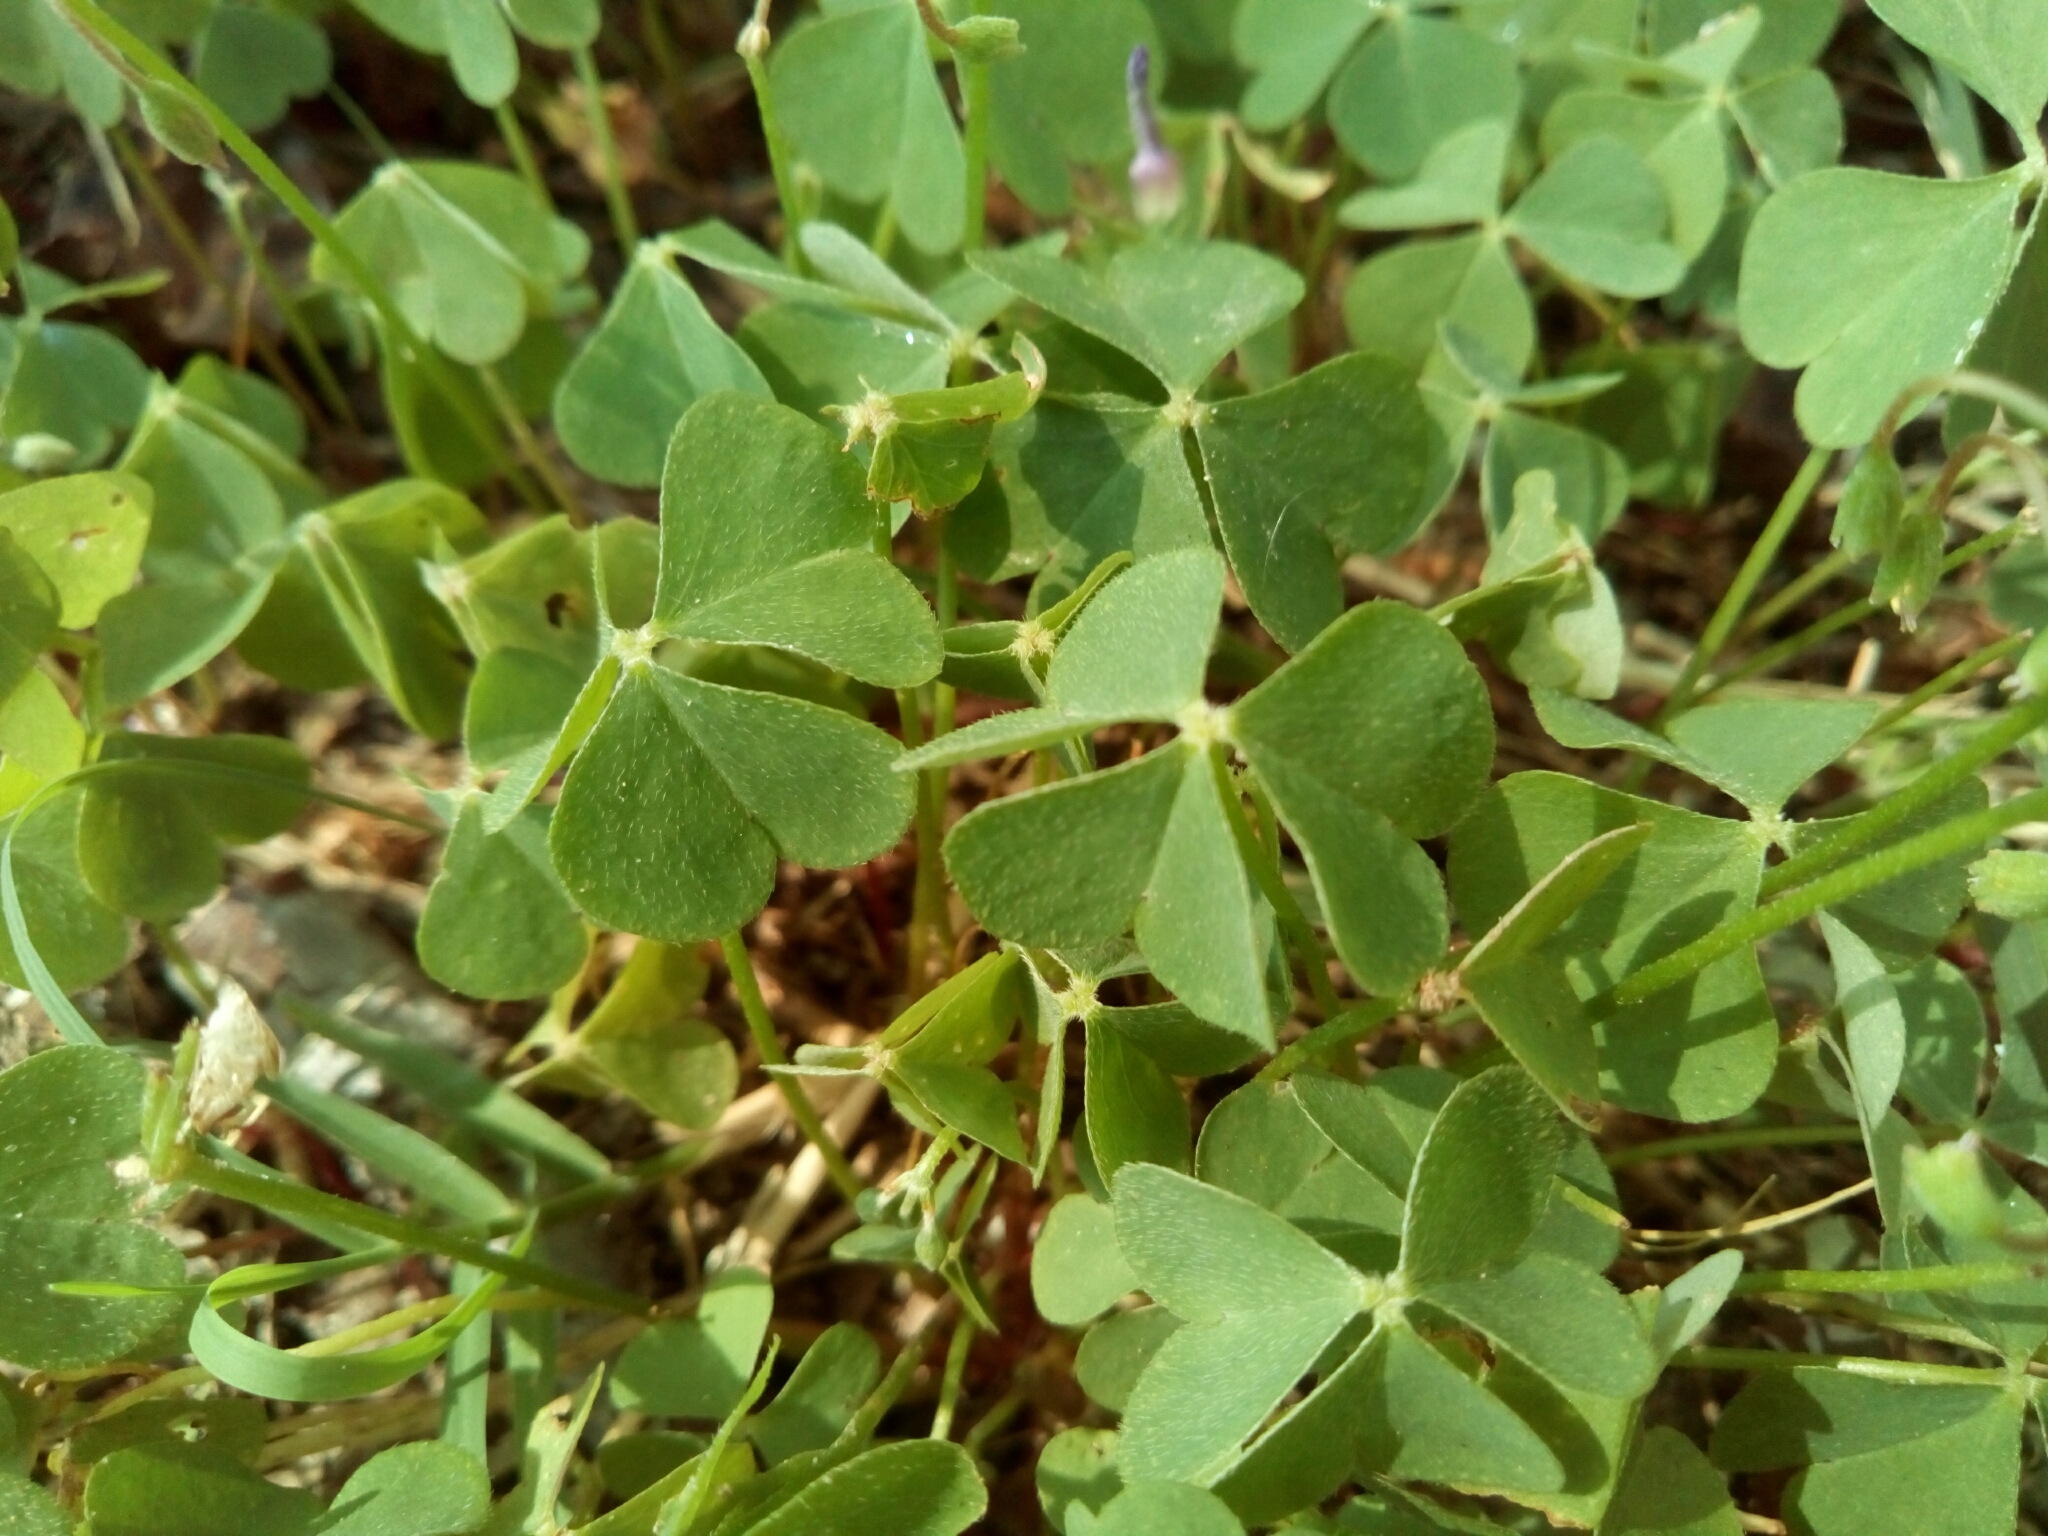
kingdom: Plantae
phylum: Tracheophyta
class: Magnoliopsida
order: Oxalidales
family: Oxalidaceae
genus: Oxalis
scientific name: Oxalis articulata
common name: Pink-sorrel
